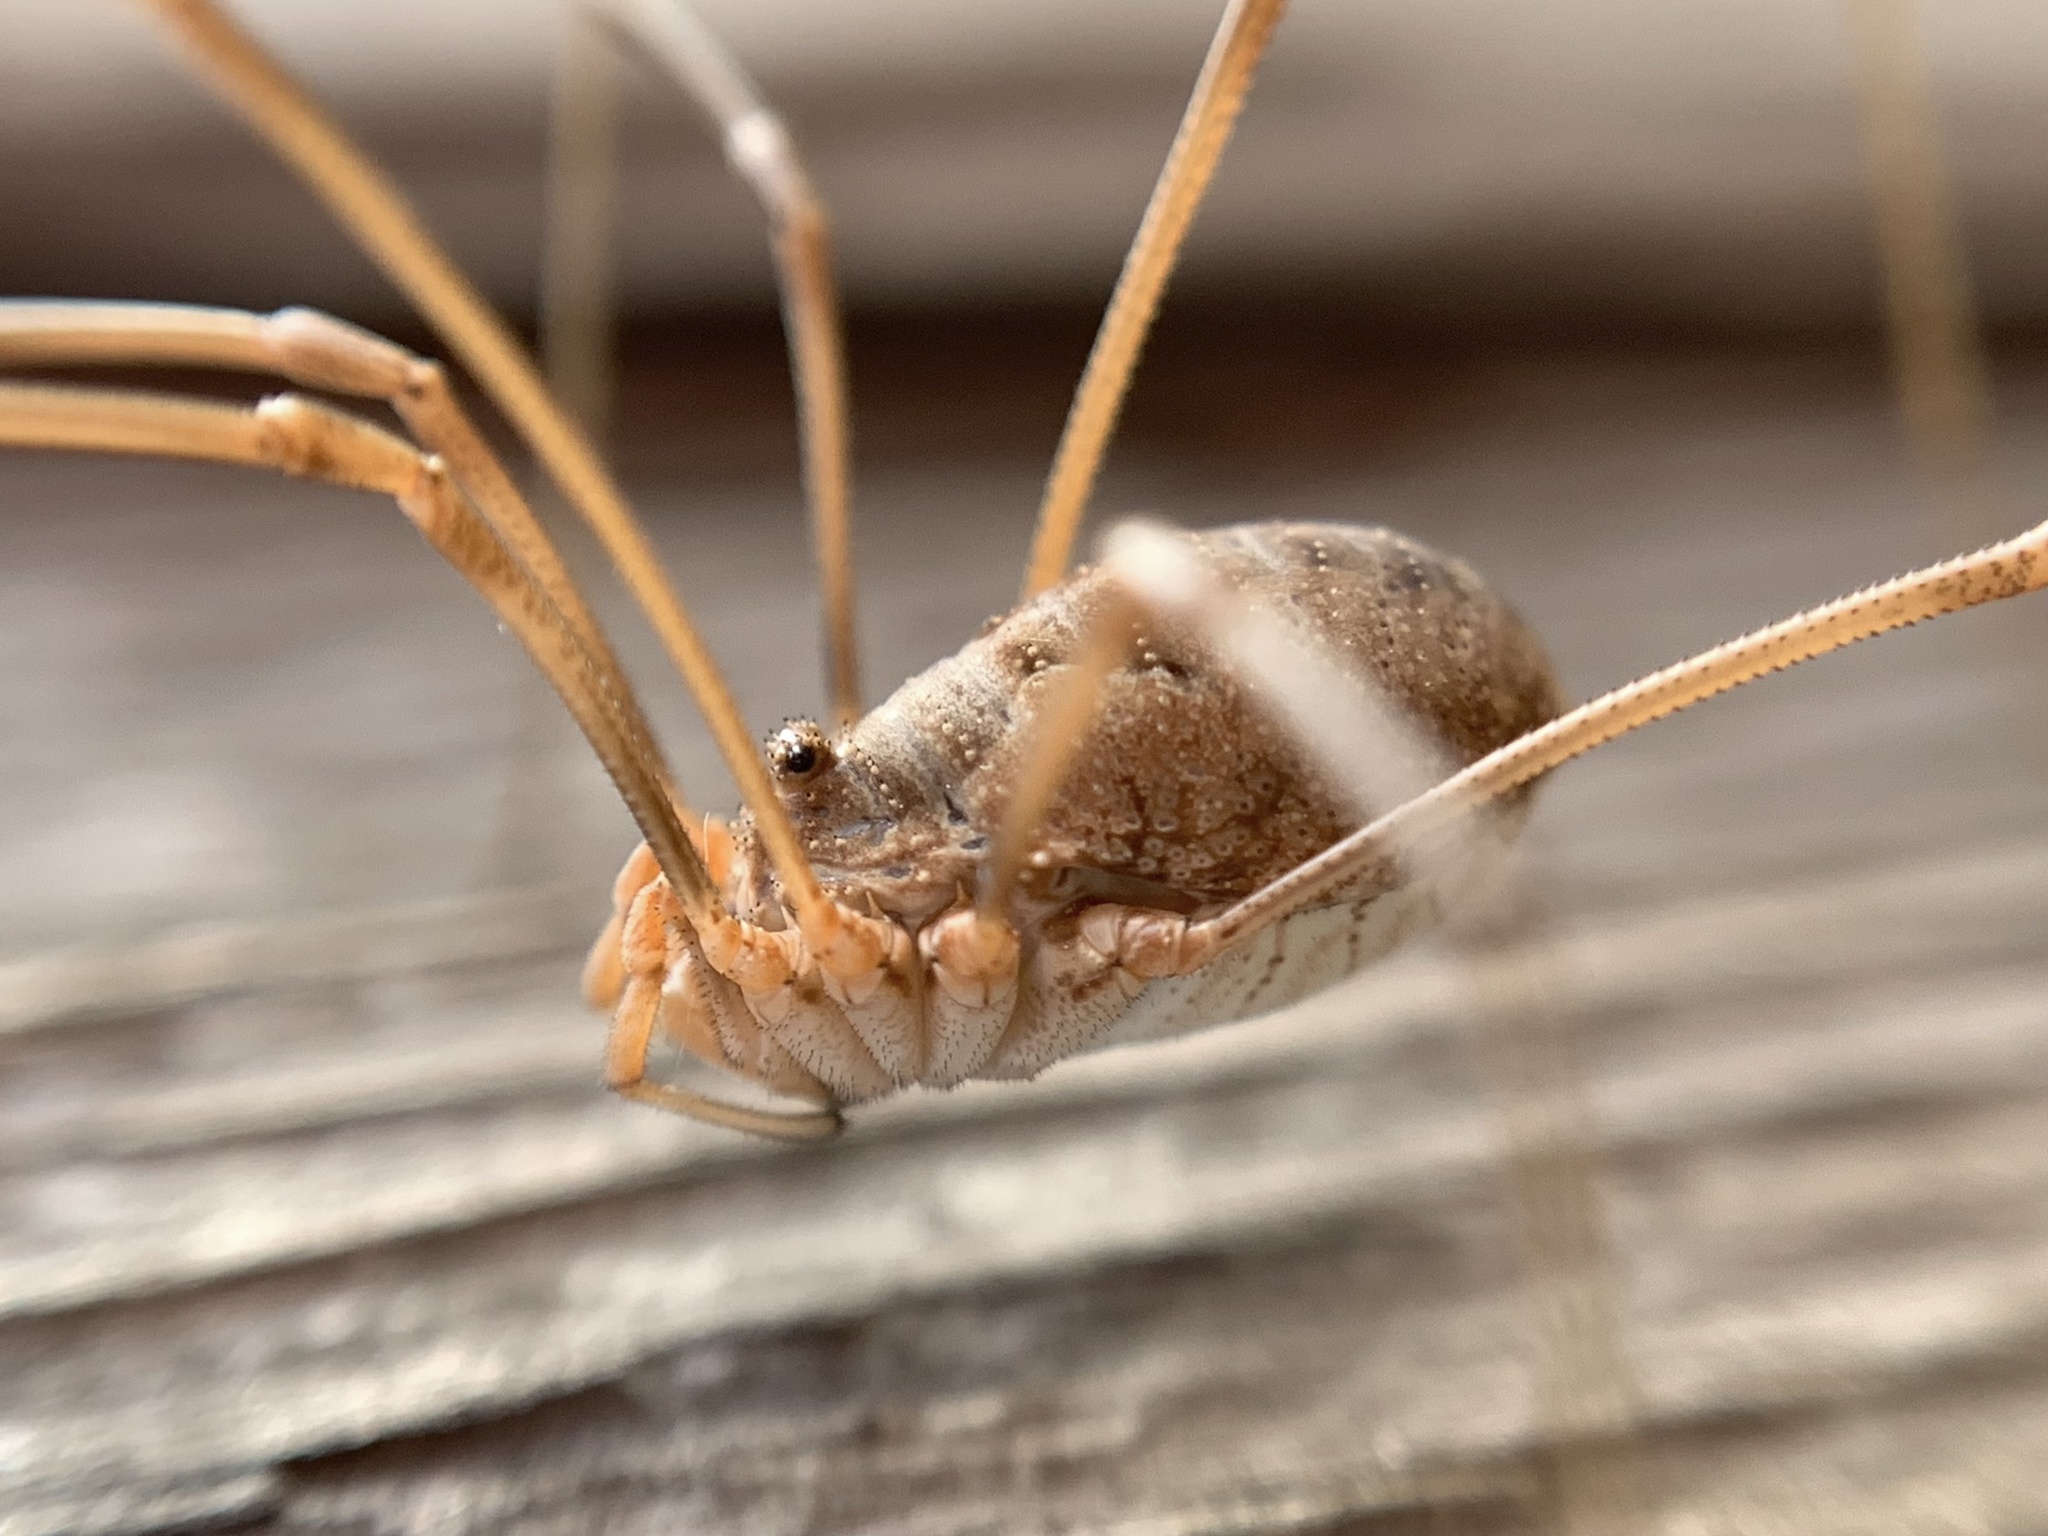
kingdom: Animalia
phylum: Arthropoda
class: Arachnida
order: Opiliones
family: Phalangiidae
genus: Phalangium
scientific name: Phalangium opilio
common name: Daddy longleg
